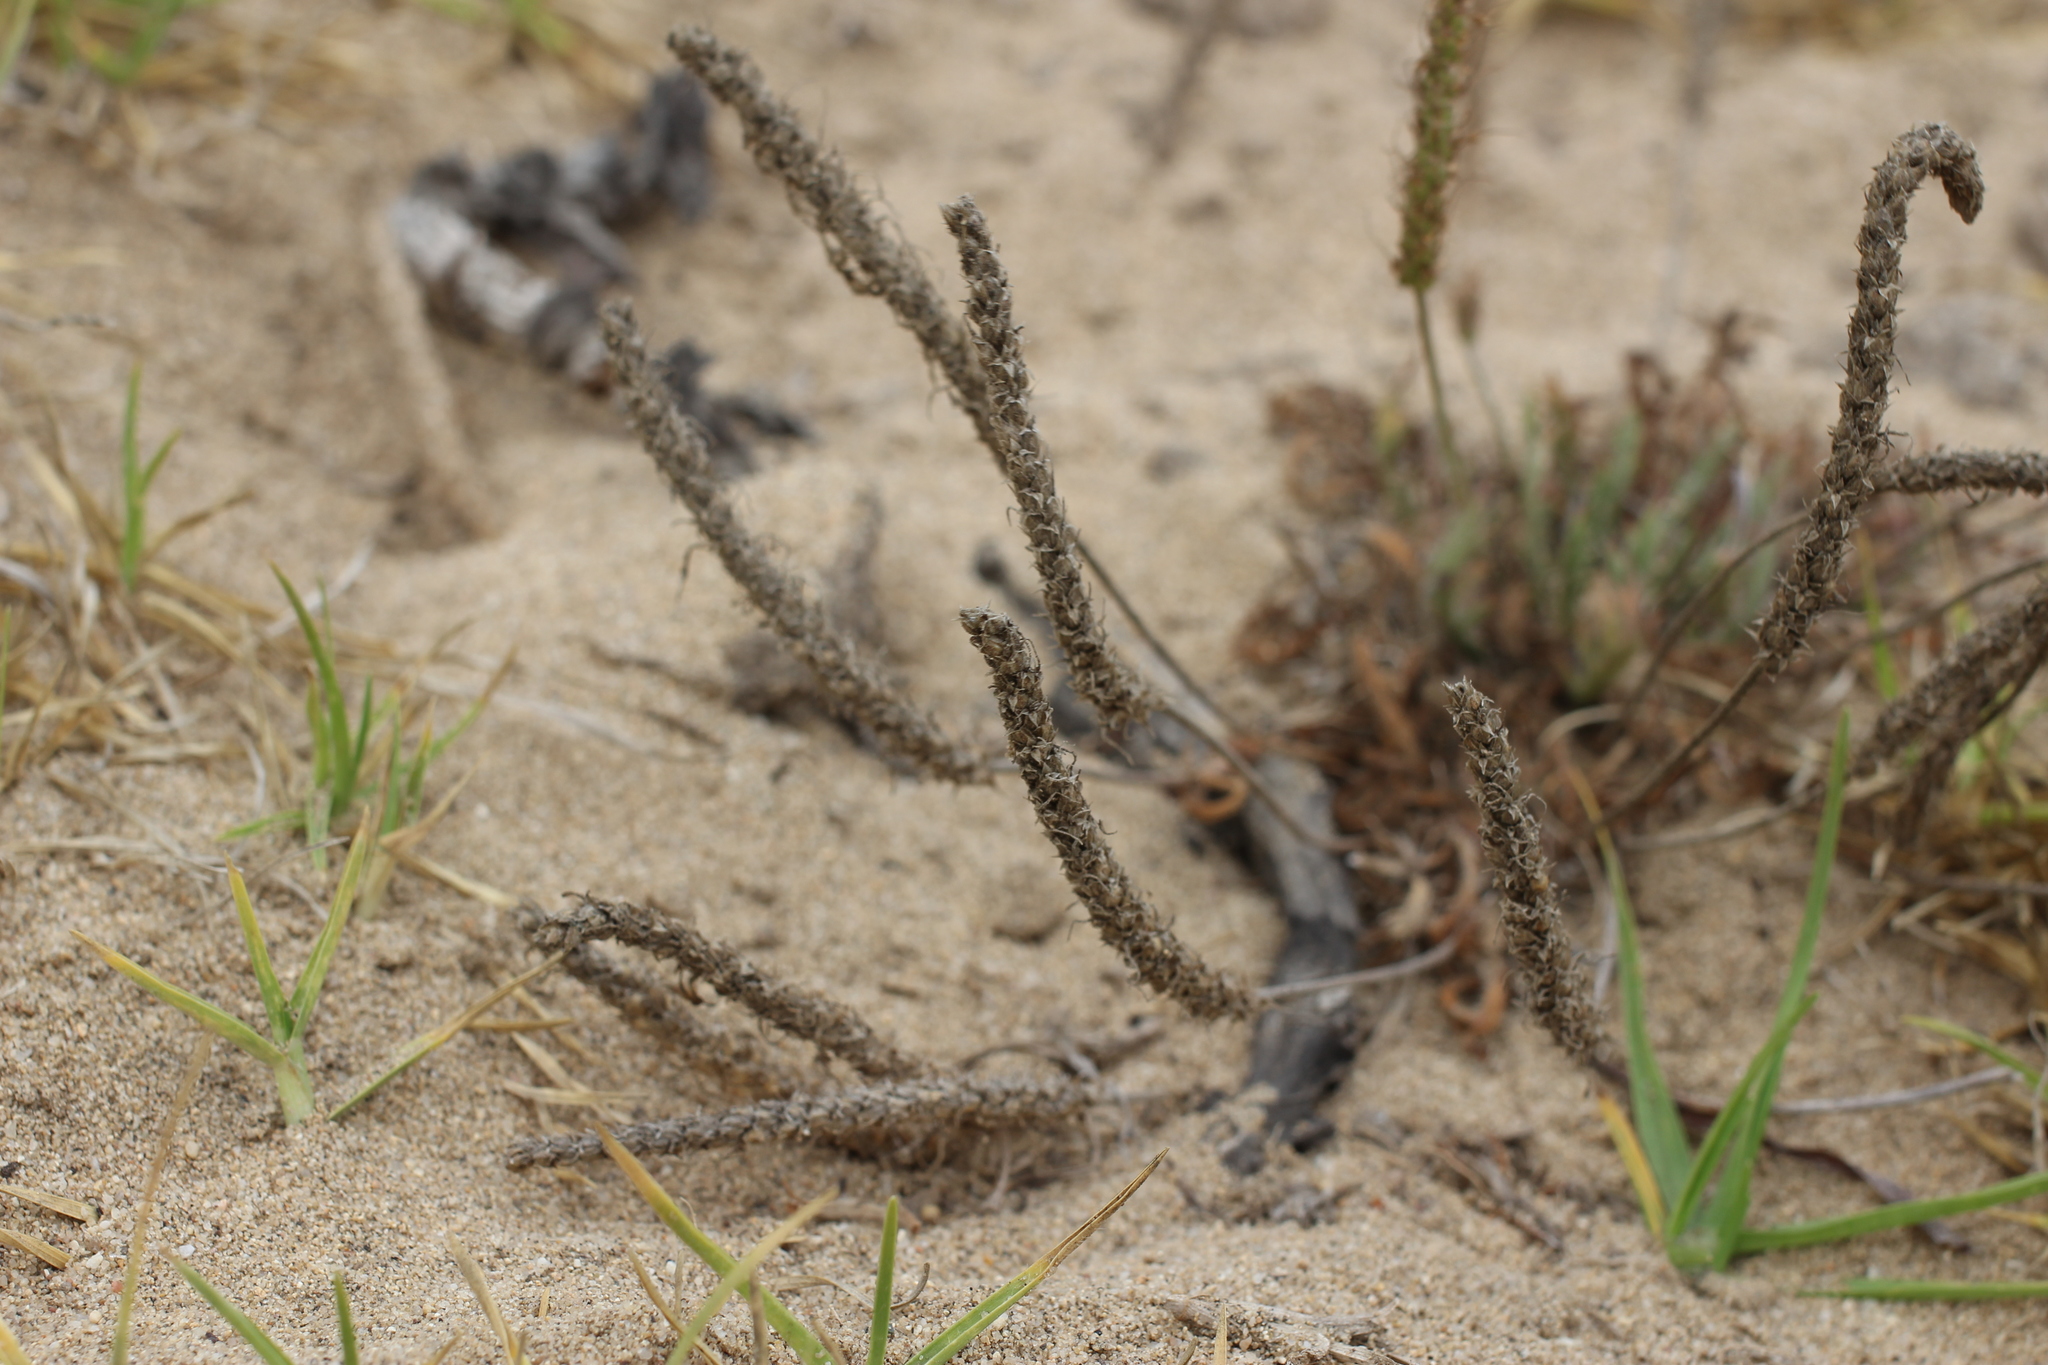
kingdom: Plantae
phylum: Tracheophyta
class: Magnoliopsida
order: Lamiales
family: Plantaginaceae
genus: Plantago
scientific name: Plantago coronopus
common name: Buck's-horn plantain
